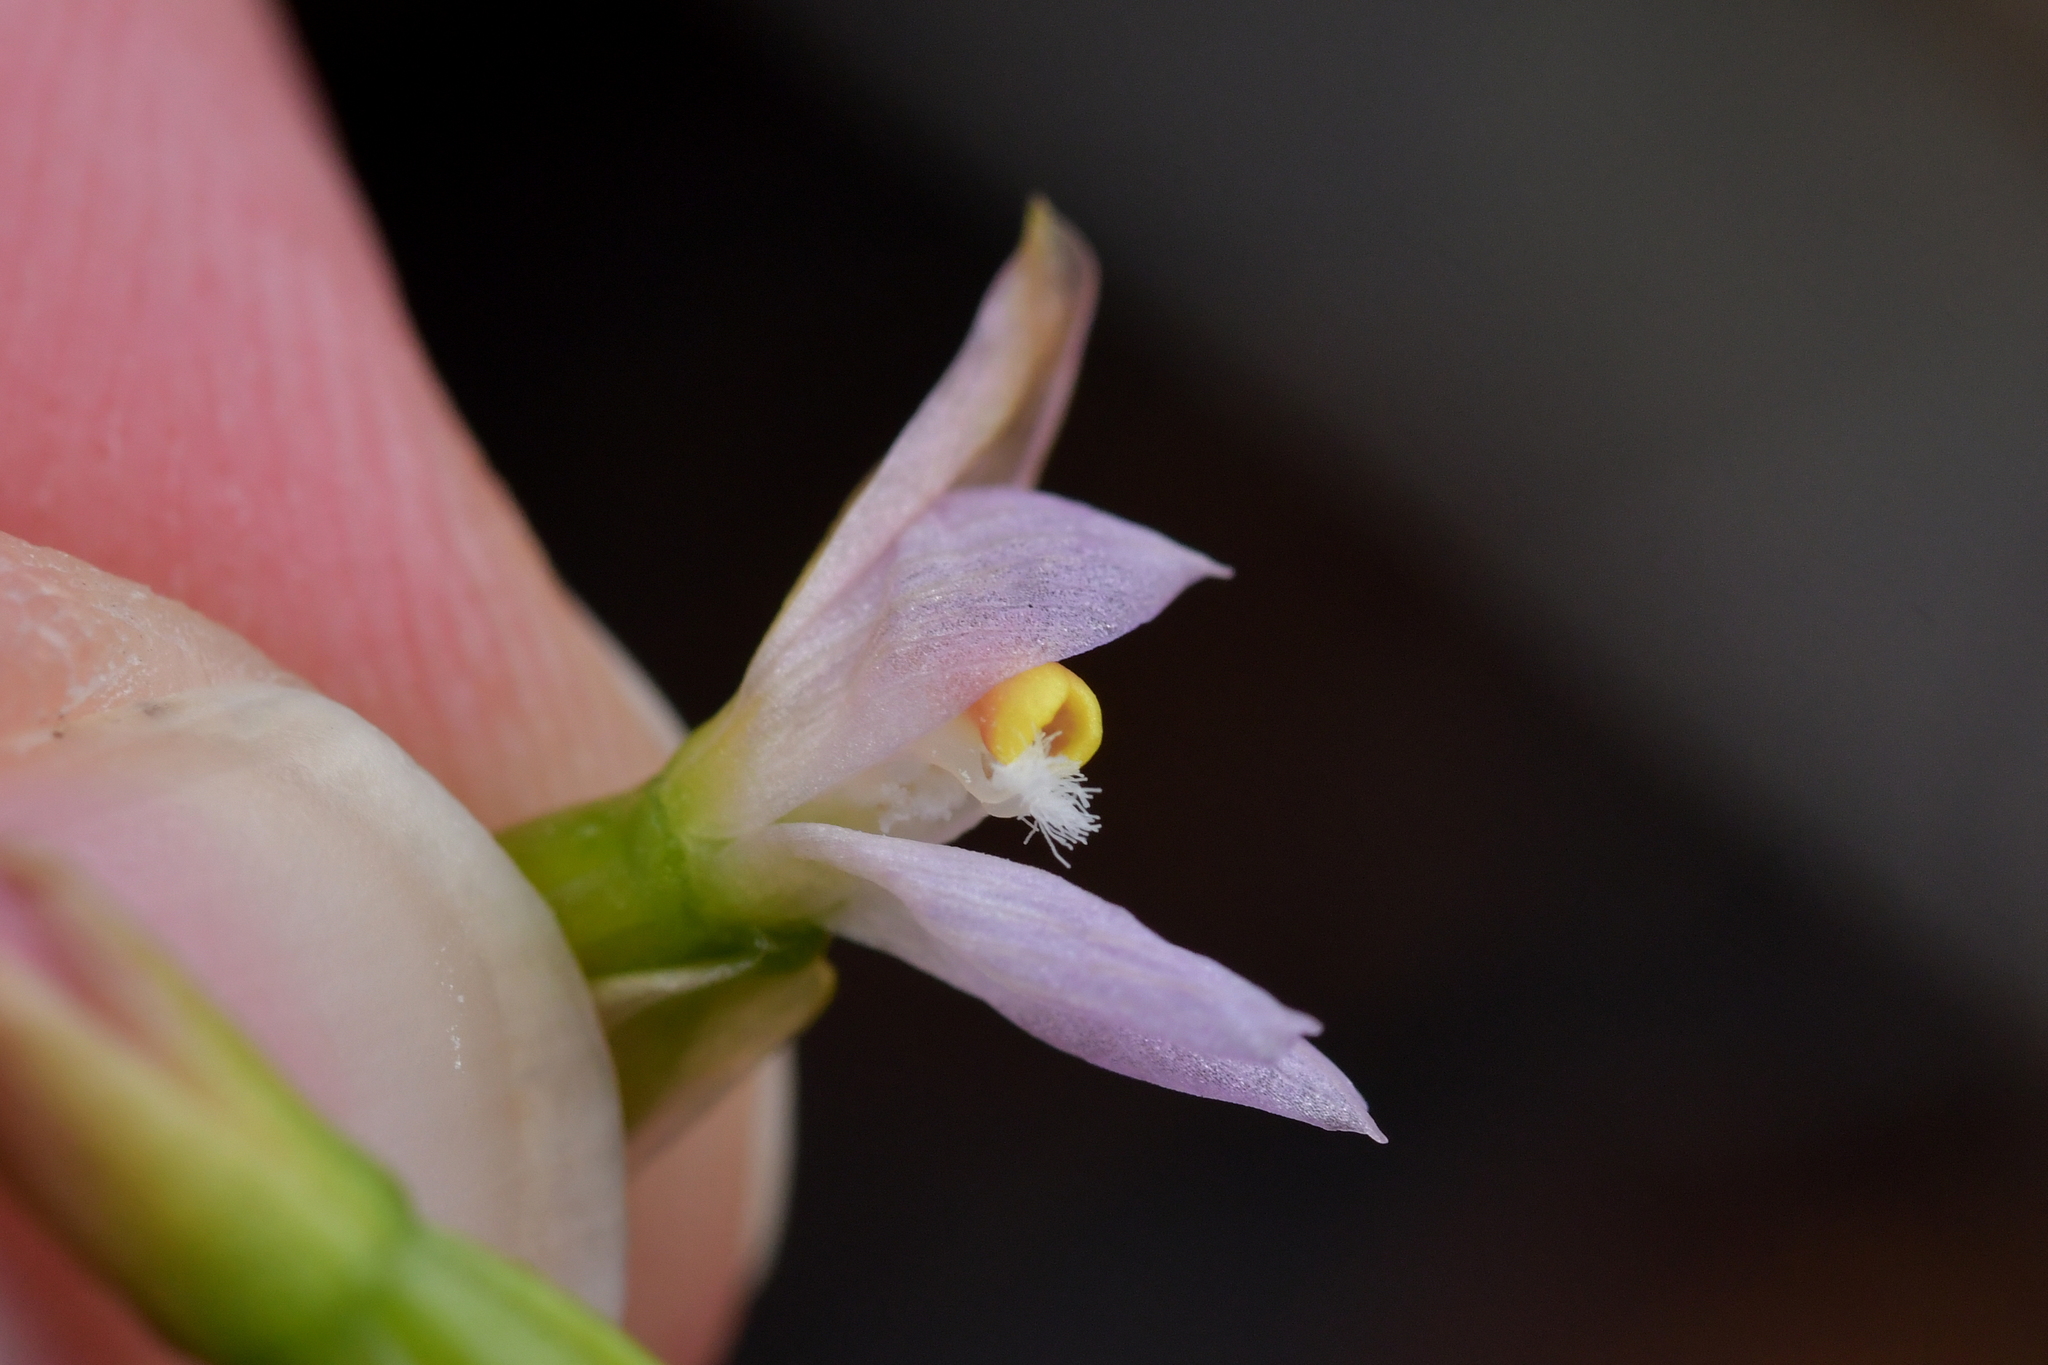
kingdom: Plantae
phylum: Tracheophyta
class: Liliopsida
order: Asparagales
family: Orchidaceae
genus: Thelymitra
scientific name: Thelymitra colensoi
